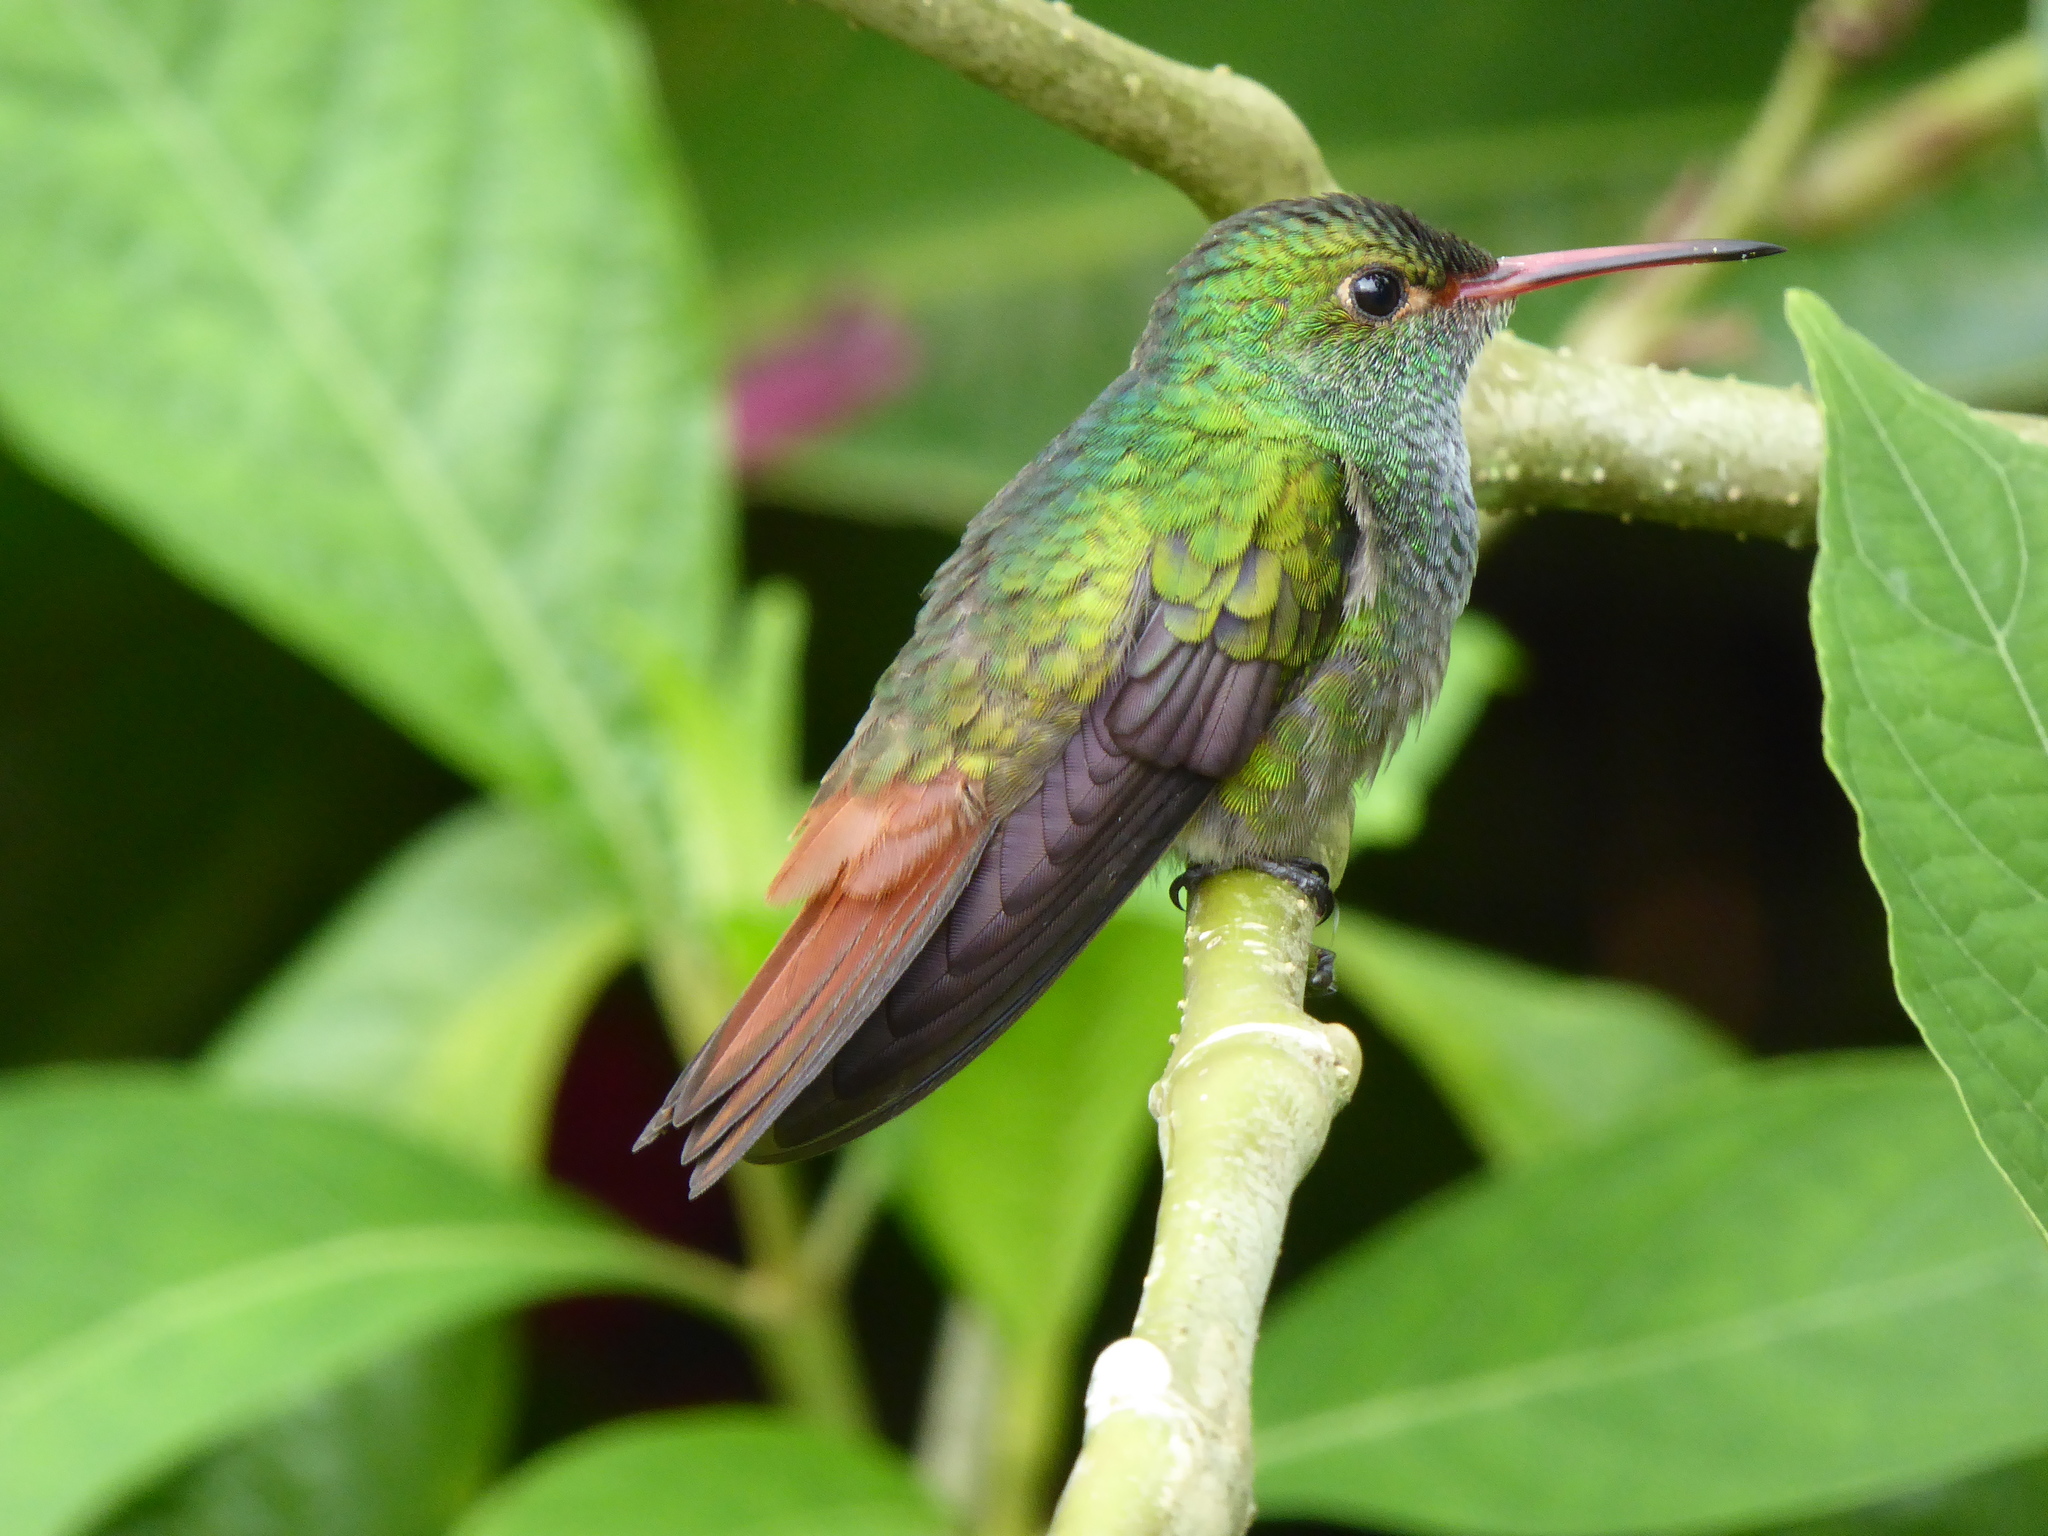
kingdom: Animalia
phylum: Chordata
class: Aves
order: Apodiformes
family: Trochilidae
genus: Amazilia
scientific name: Amazilia tzacatl
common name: Rufous-tailed hummingbird
